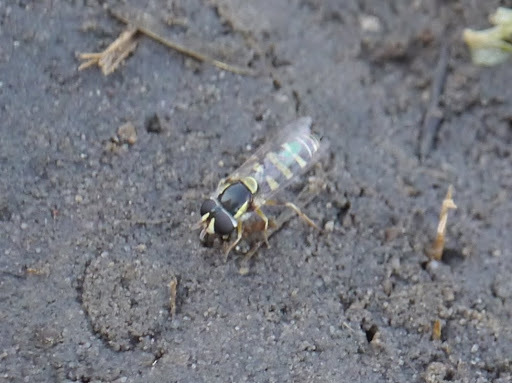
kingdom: Animalia
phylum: Arthropoda
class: Insecta
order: Diptera
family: Syrphidae
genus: Ischiodon
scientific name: Ischiodon aegyptius
